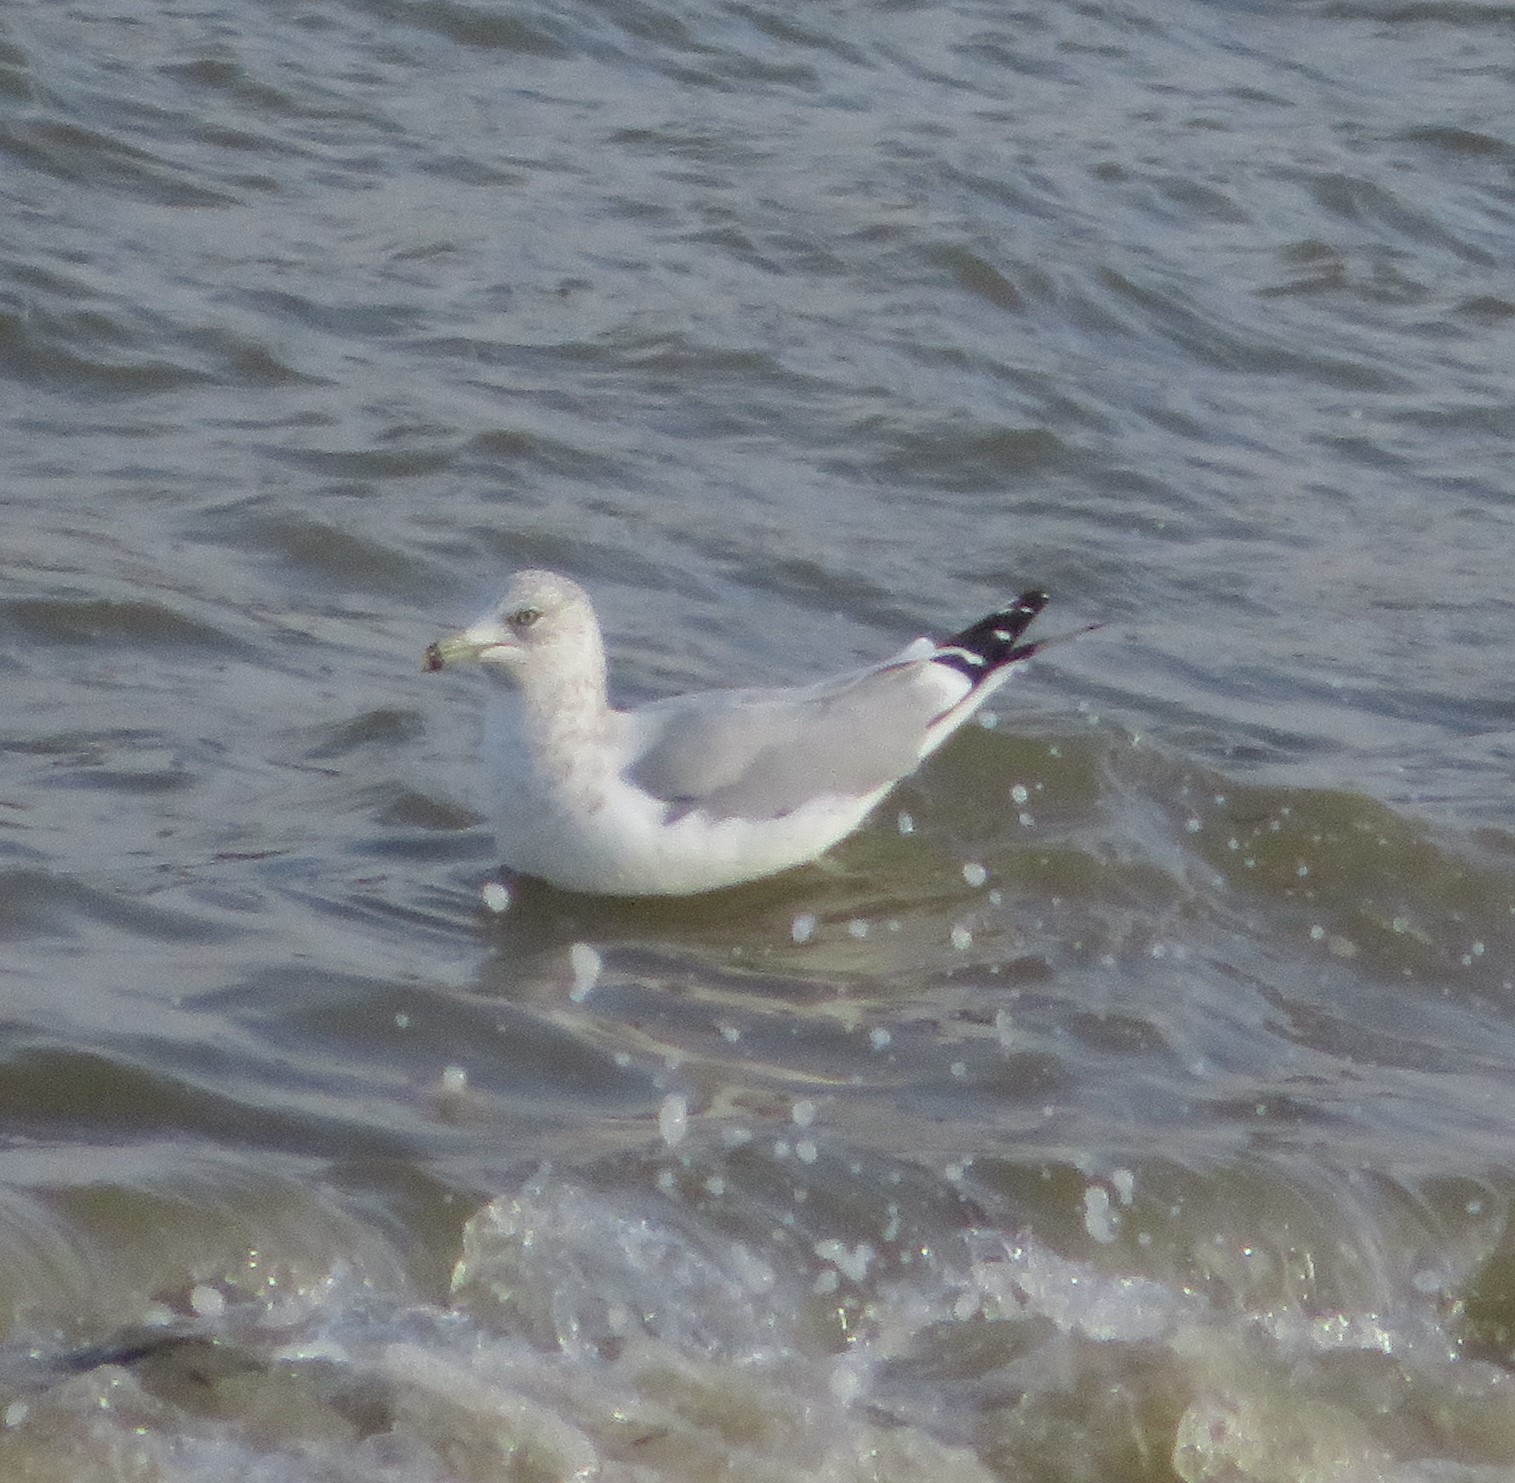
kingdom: Animalia
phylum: Chordata
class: Aves
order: Charadriiformes
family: Laridae
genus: Larus
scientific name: Larus delawarensis
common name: Ring-billed gull
